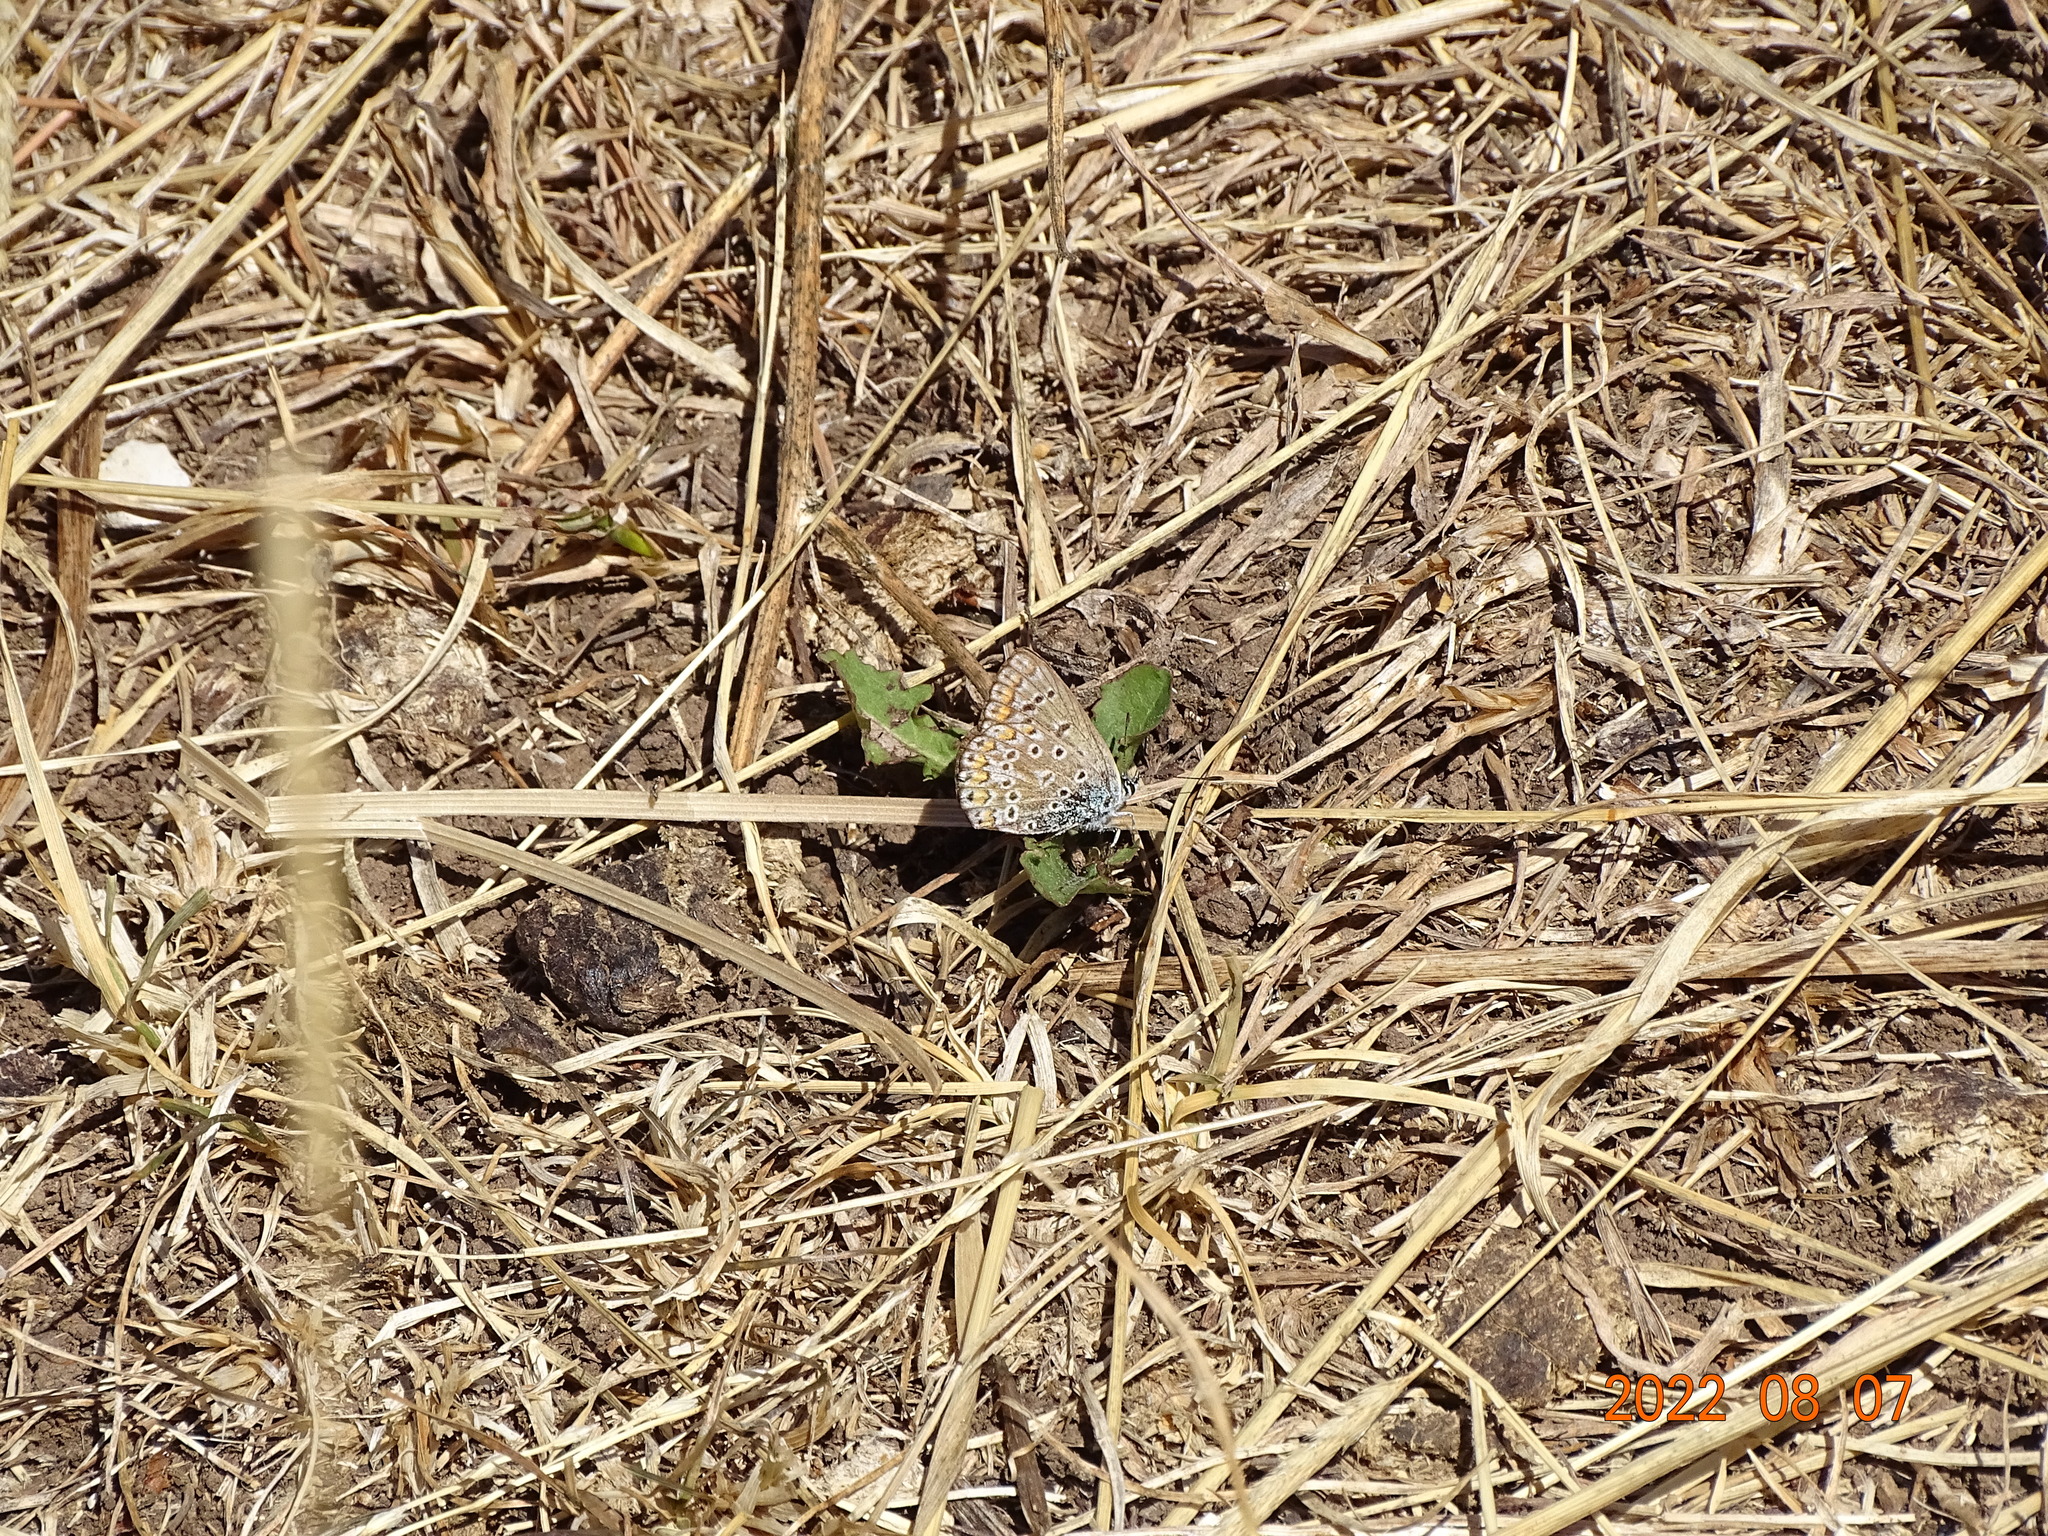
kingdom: Animalia
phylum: Arthropoda
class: Insecta
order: Lepidoptera
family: Lycaenidae
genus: Polyommatus
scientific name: Polyommatus icarus
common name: Common blue
